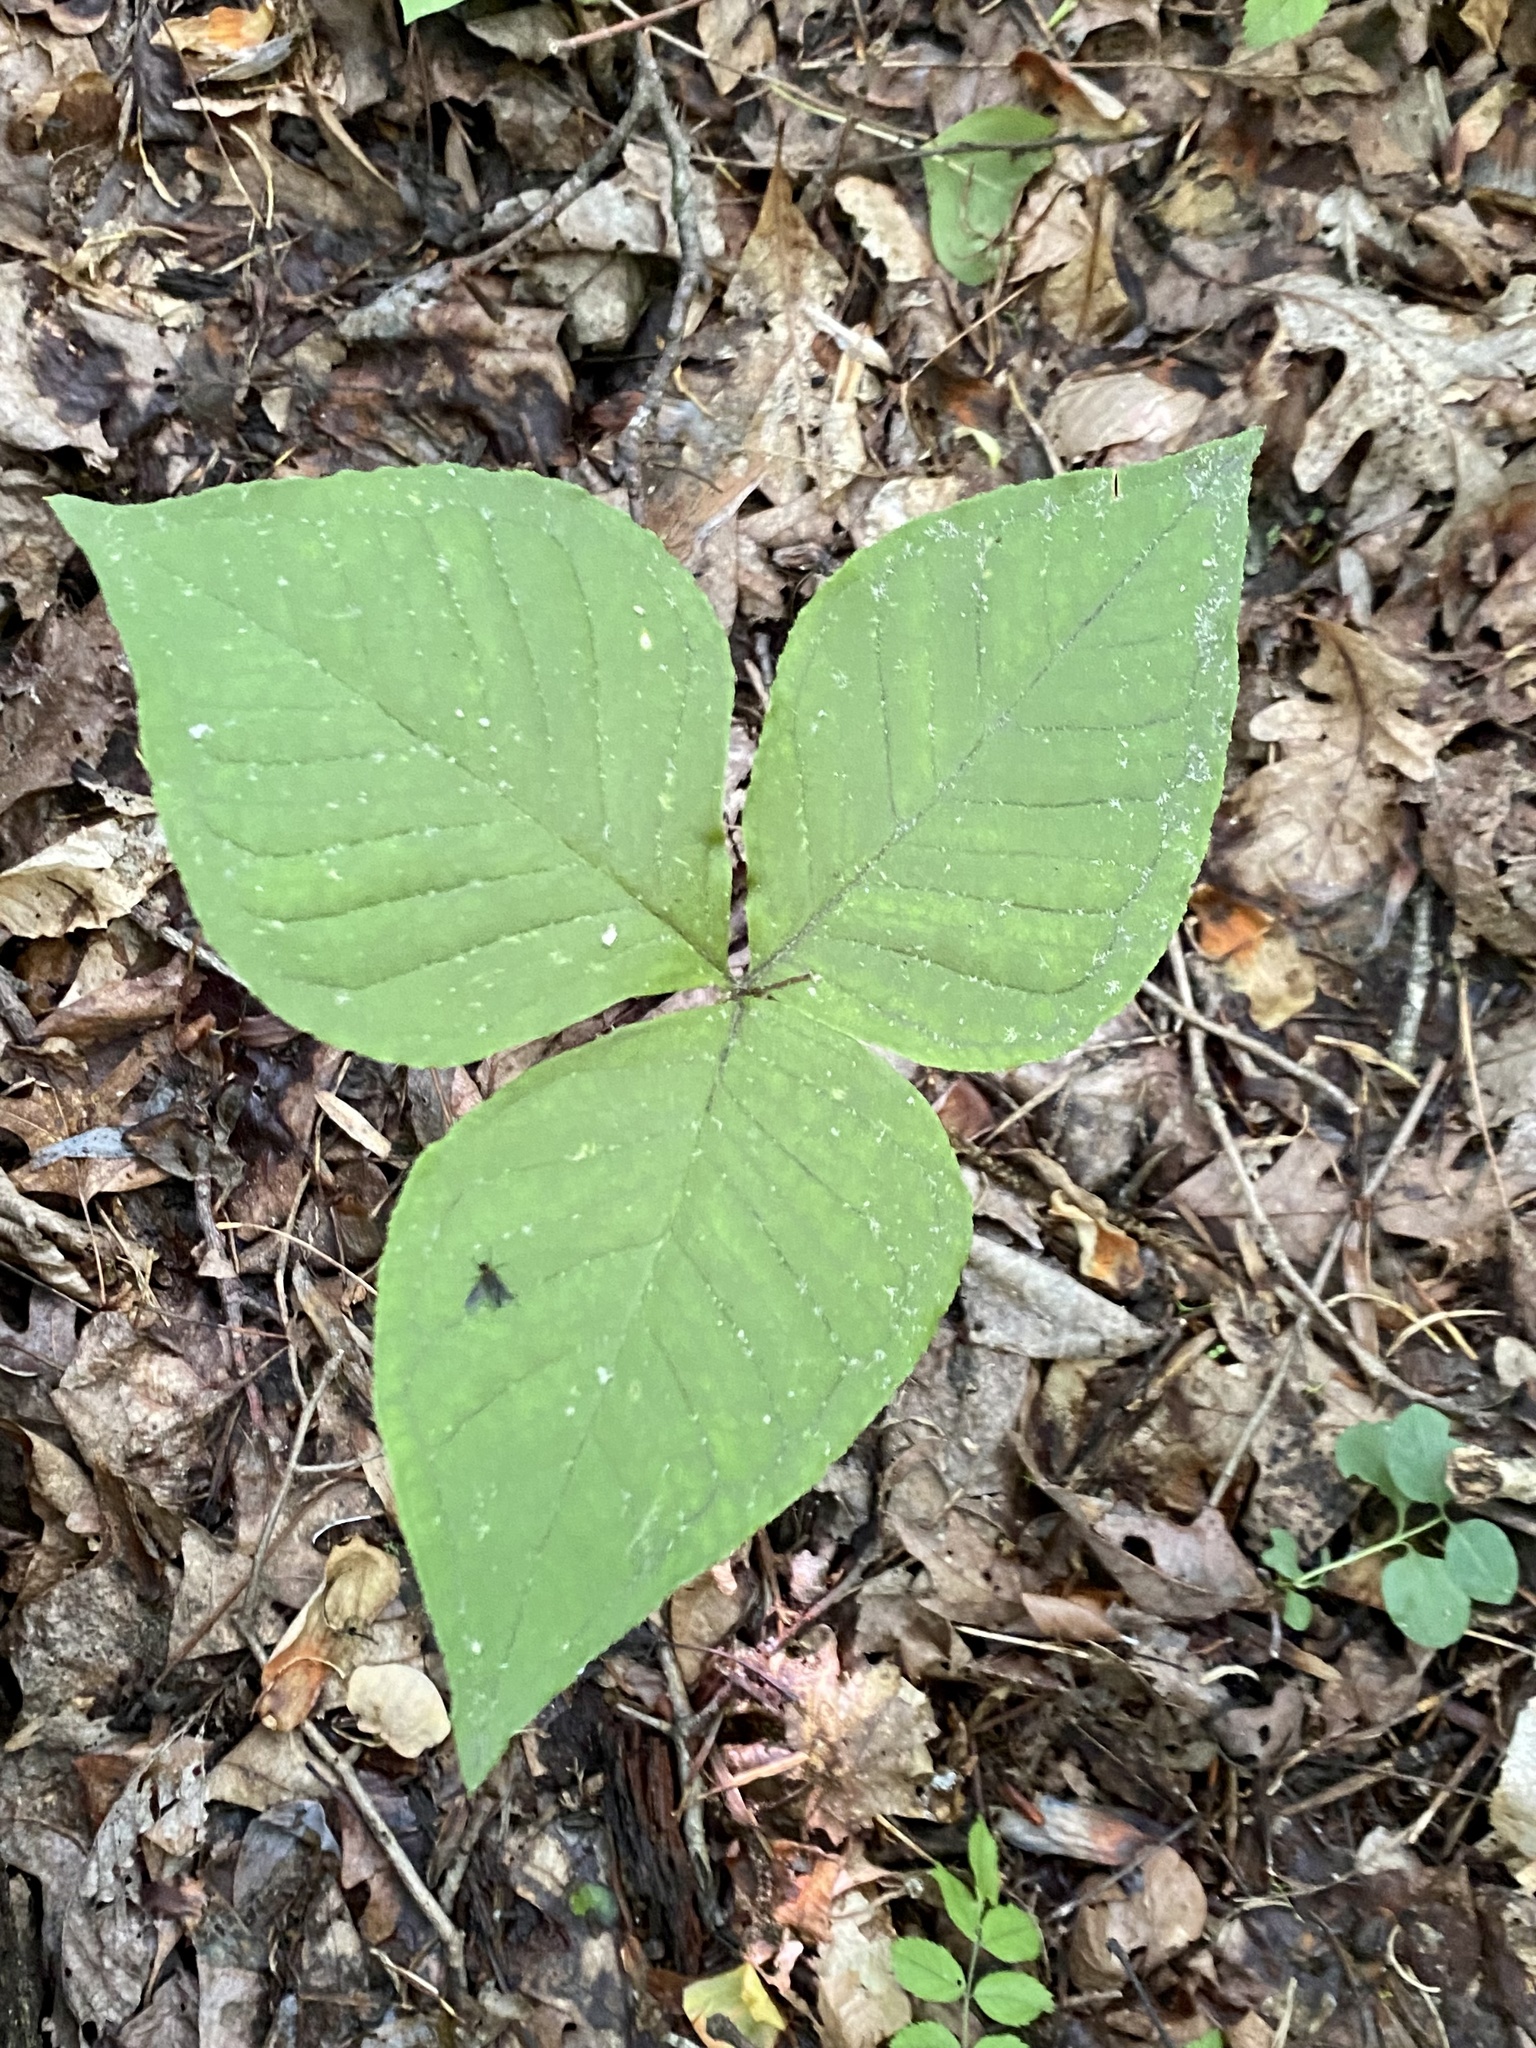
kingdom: Plantae
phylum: Tracheophyta
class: Liliopsida
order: Alismatales
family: Araceae
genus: Arisaema
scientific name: Arisaema triphyllum
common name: Jack-in-the-pulpit
